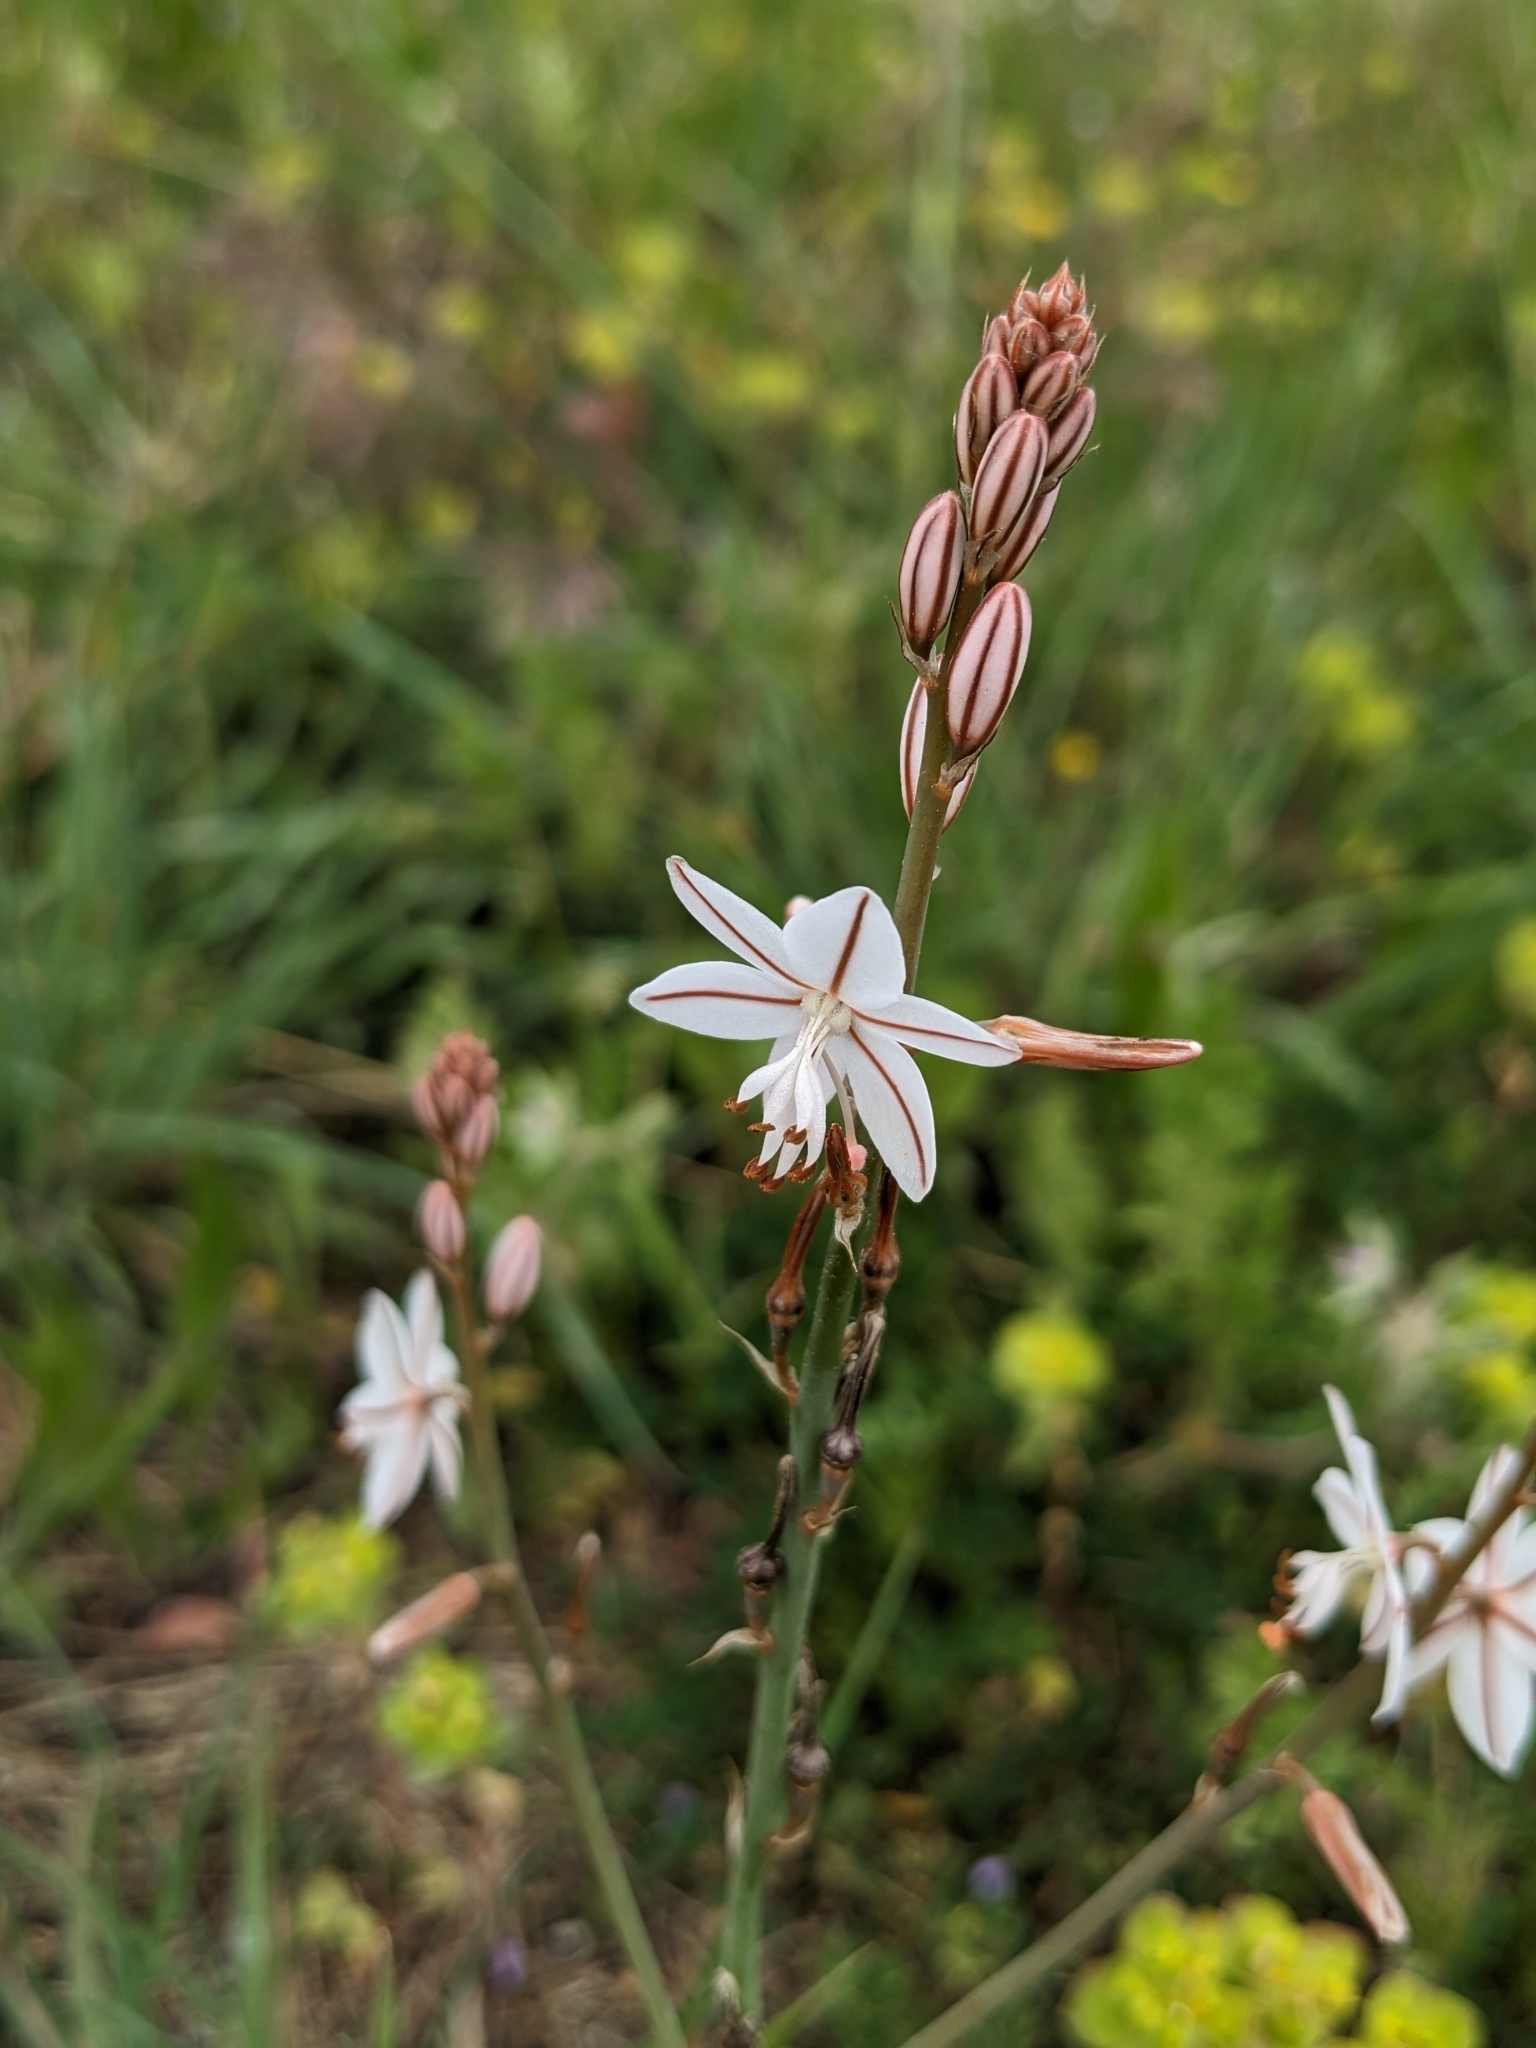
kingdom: Plantae
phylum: Tracheophyta
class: Liliopsida
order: Asparagales
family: Asphodelaceae
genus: Asphodelus
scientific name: Asphodelus fistulosus
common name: Onionweed
